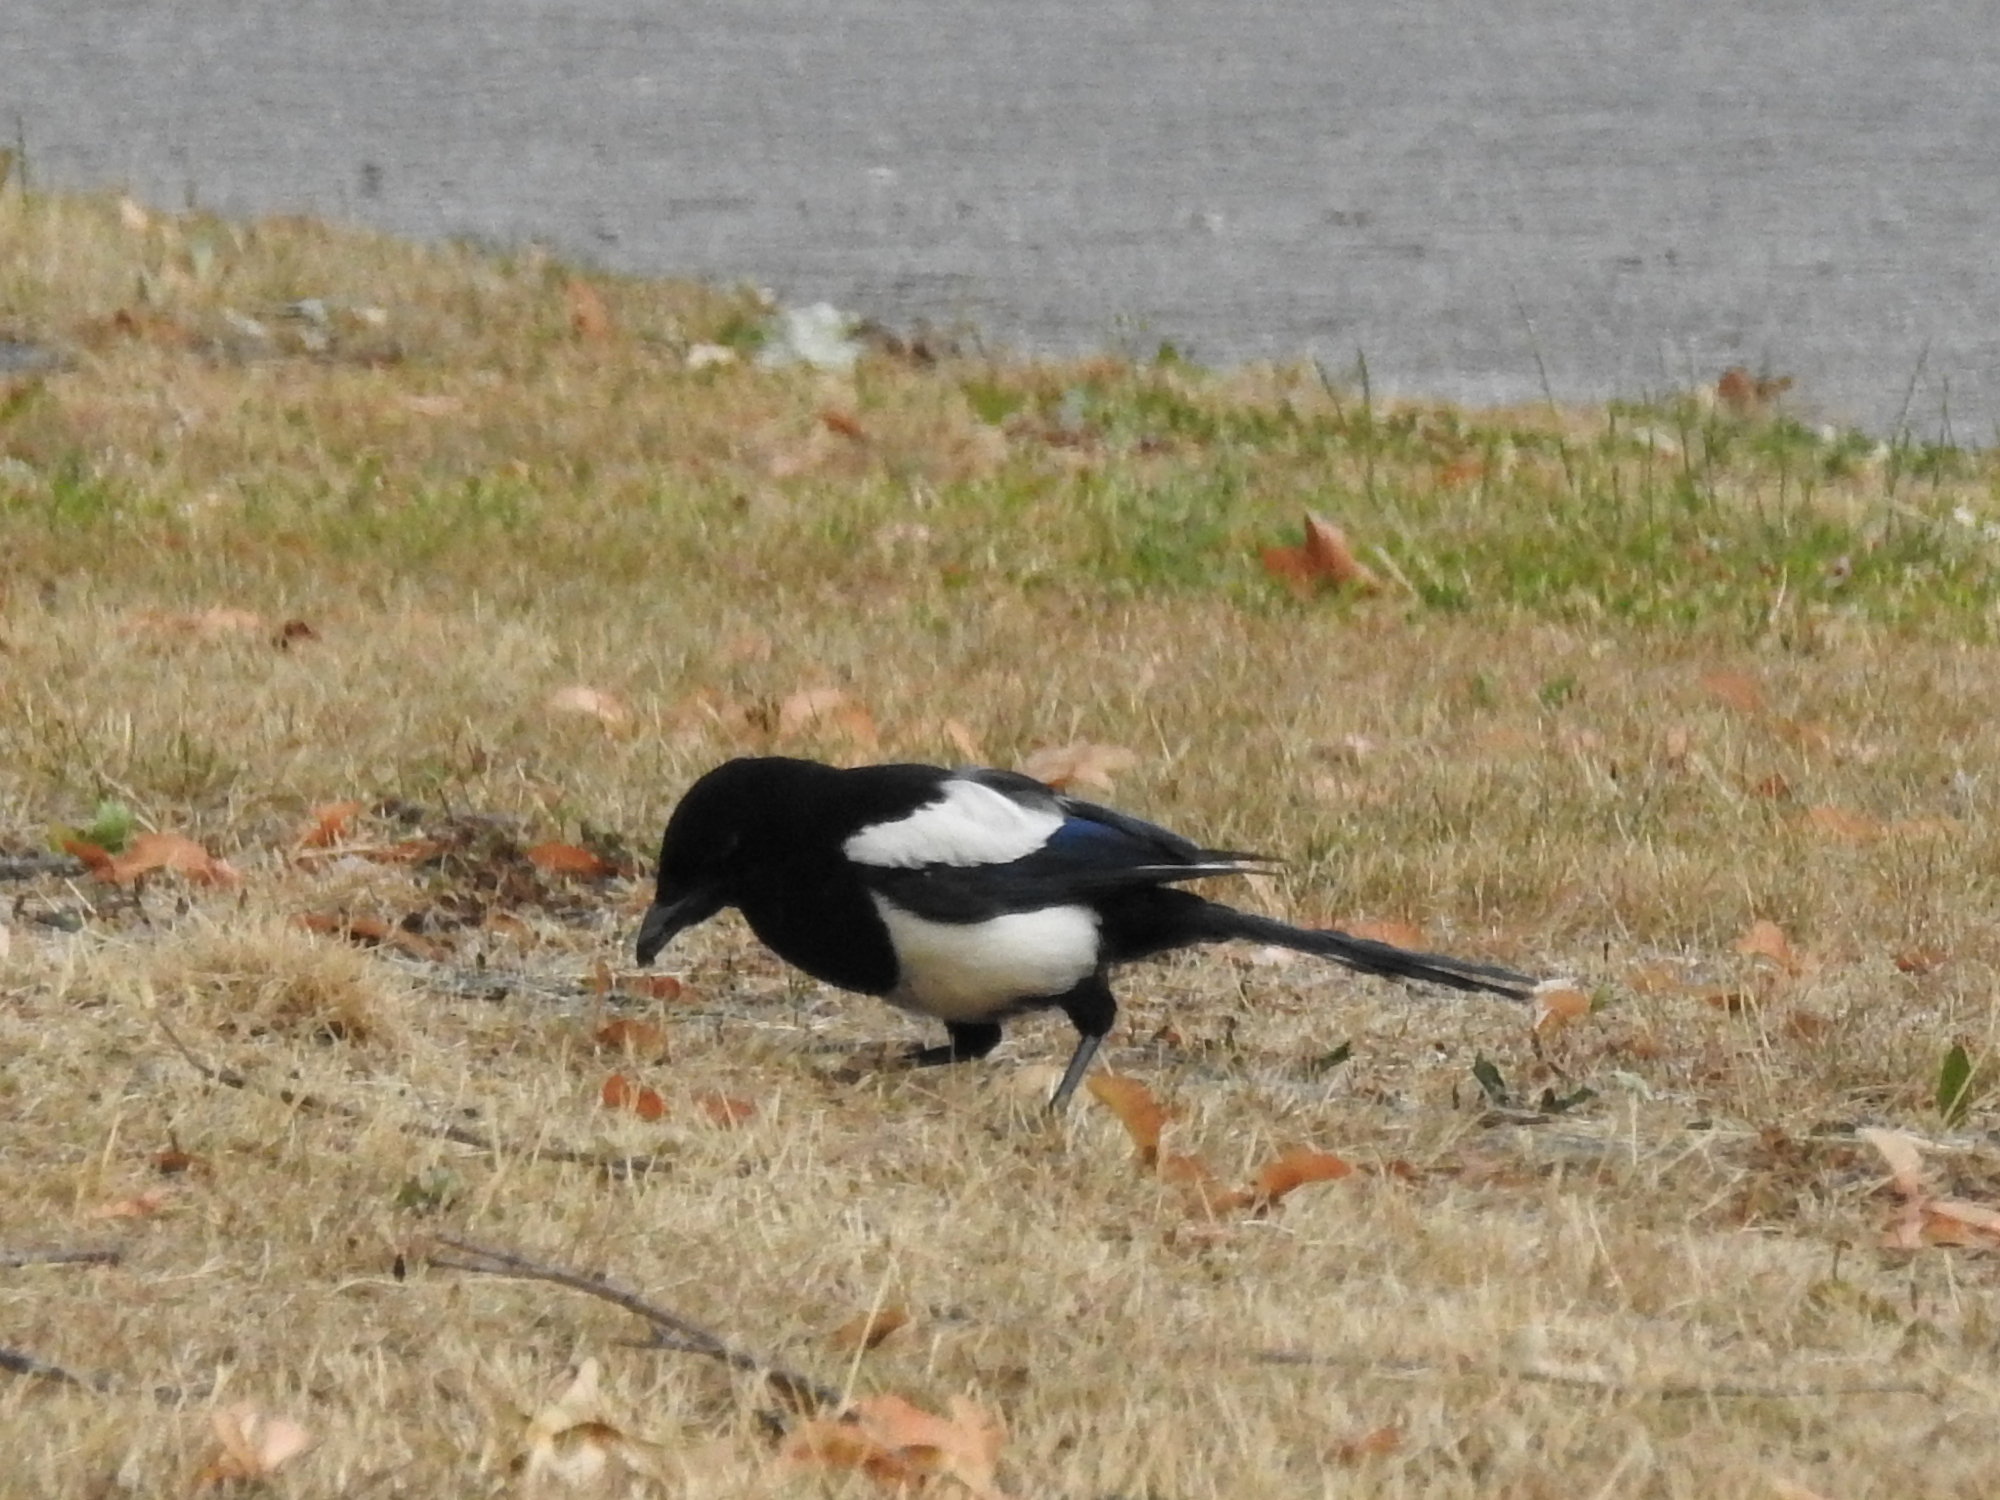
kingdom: Animalia
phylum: Chordata
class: Aves
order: Passeriformes
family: Corvidae
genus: Pica
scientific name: Pica pica
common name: Eurasian magpie
